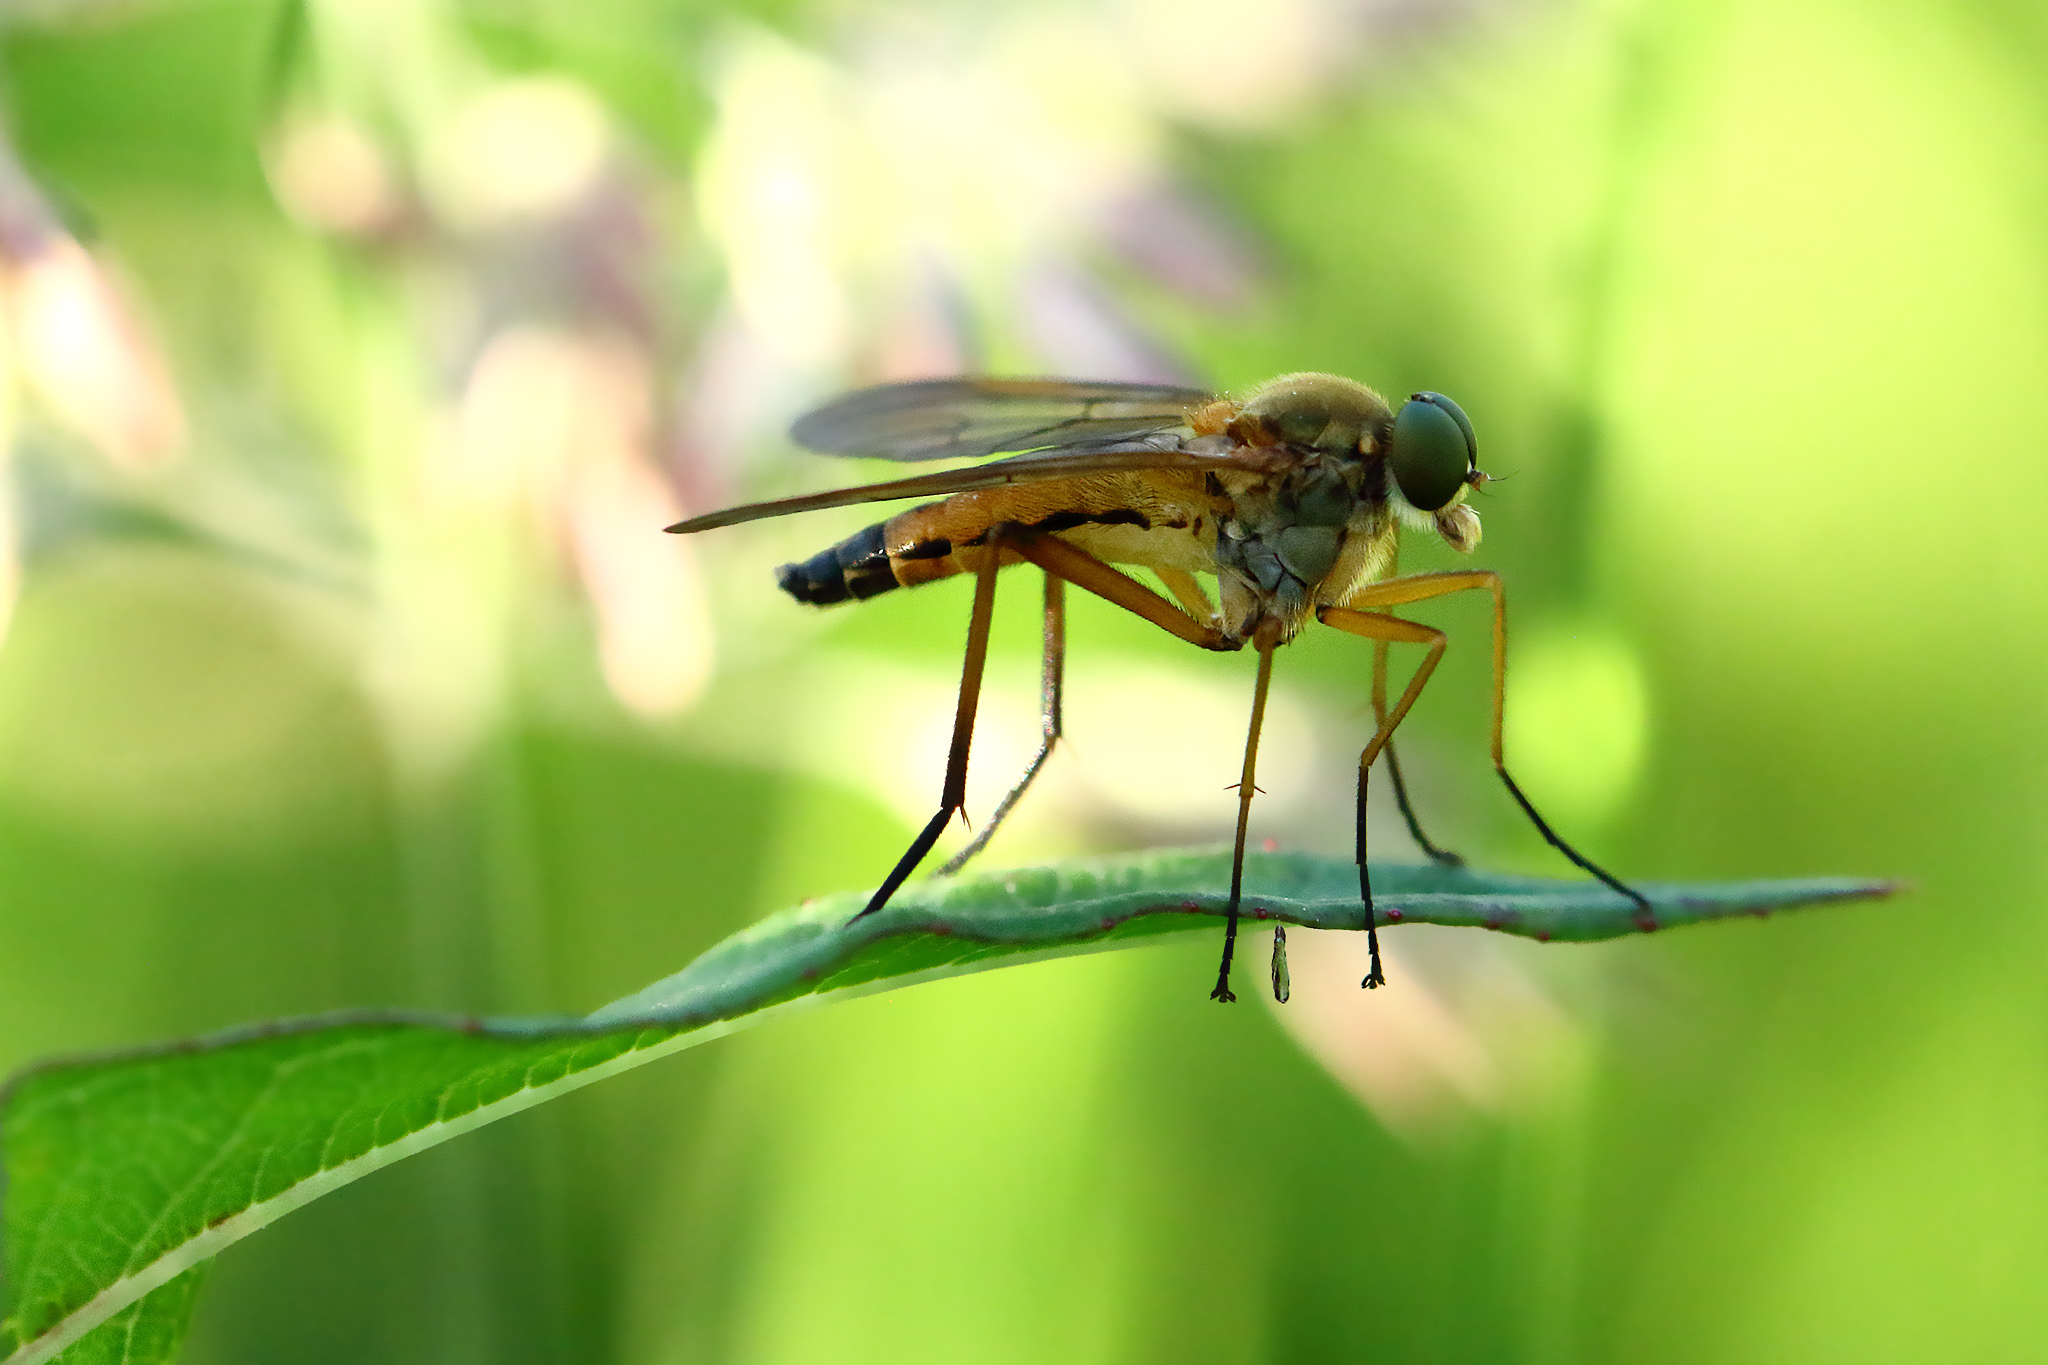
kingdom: Animalia
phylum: Arthropoda
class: Insecta
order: Diptera
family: Rhagionidae
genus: Rhagio
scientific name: Rhagio tringaria
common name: Marsh snipefly
